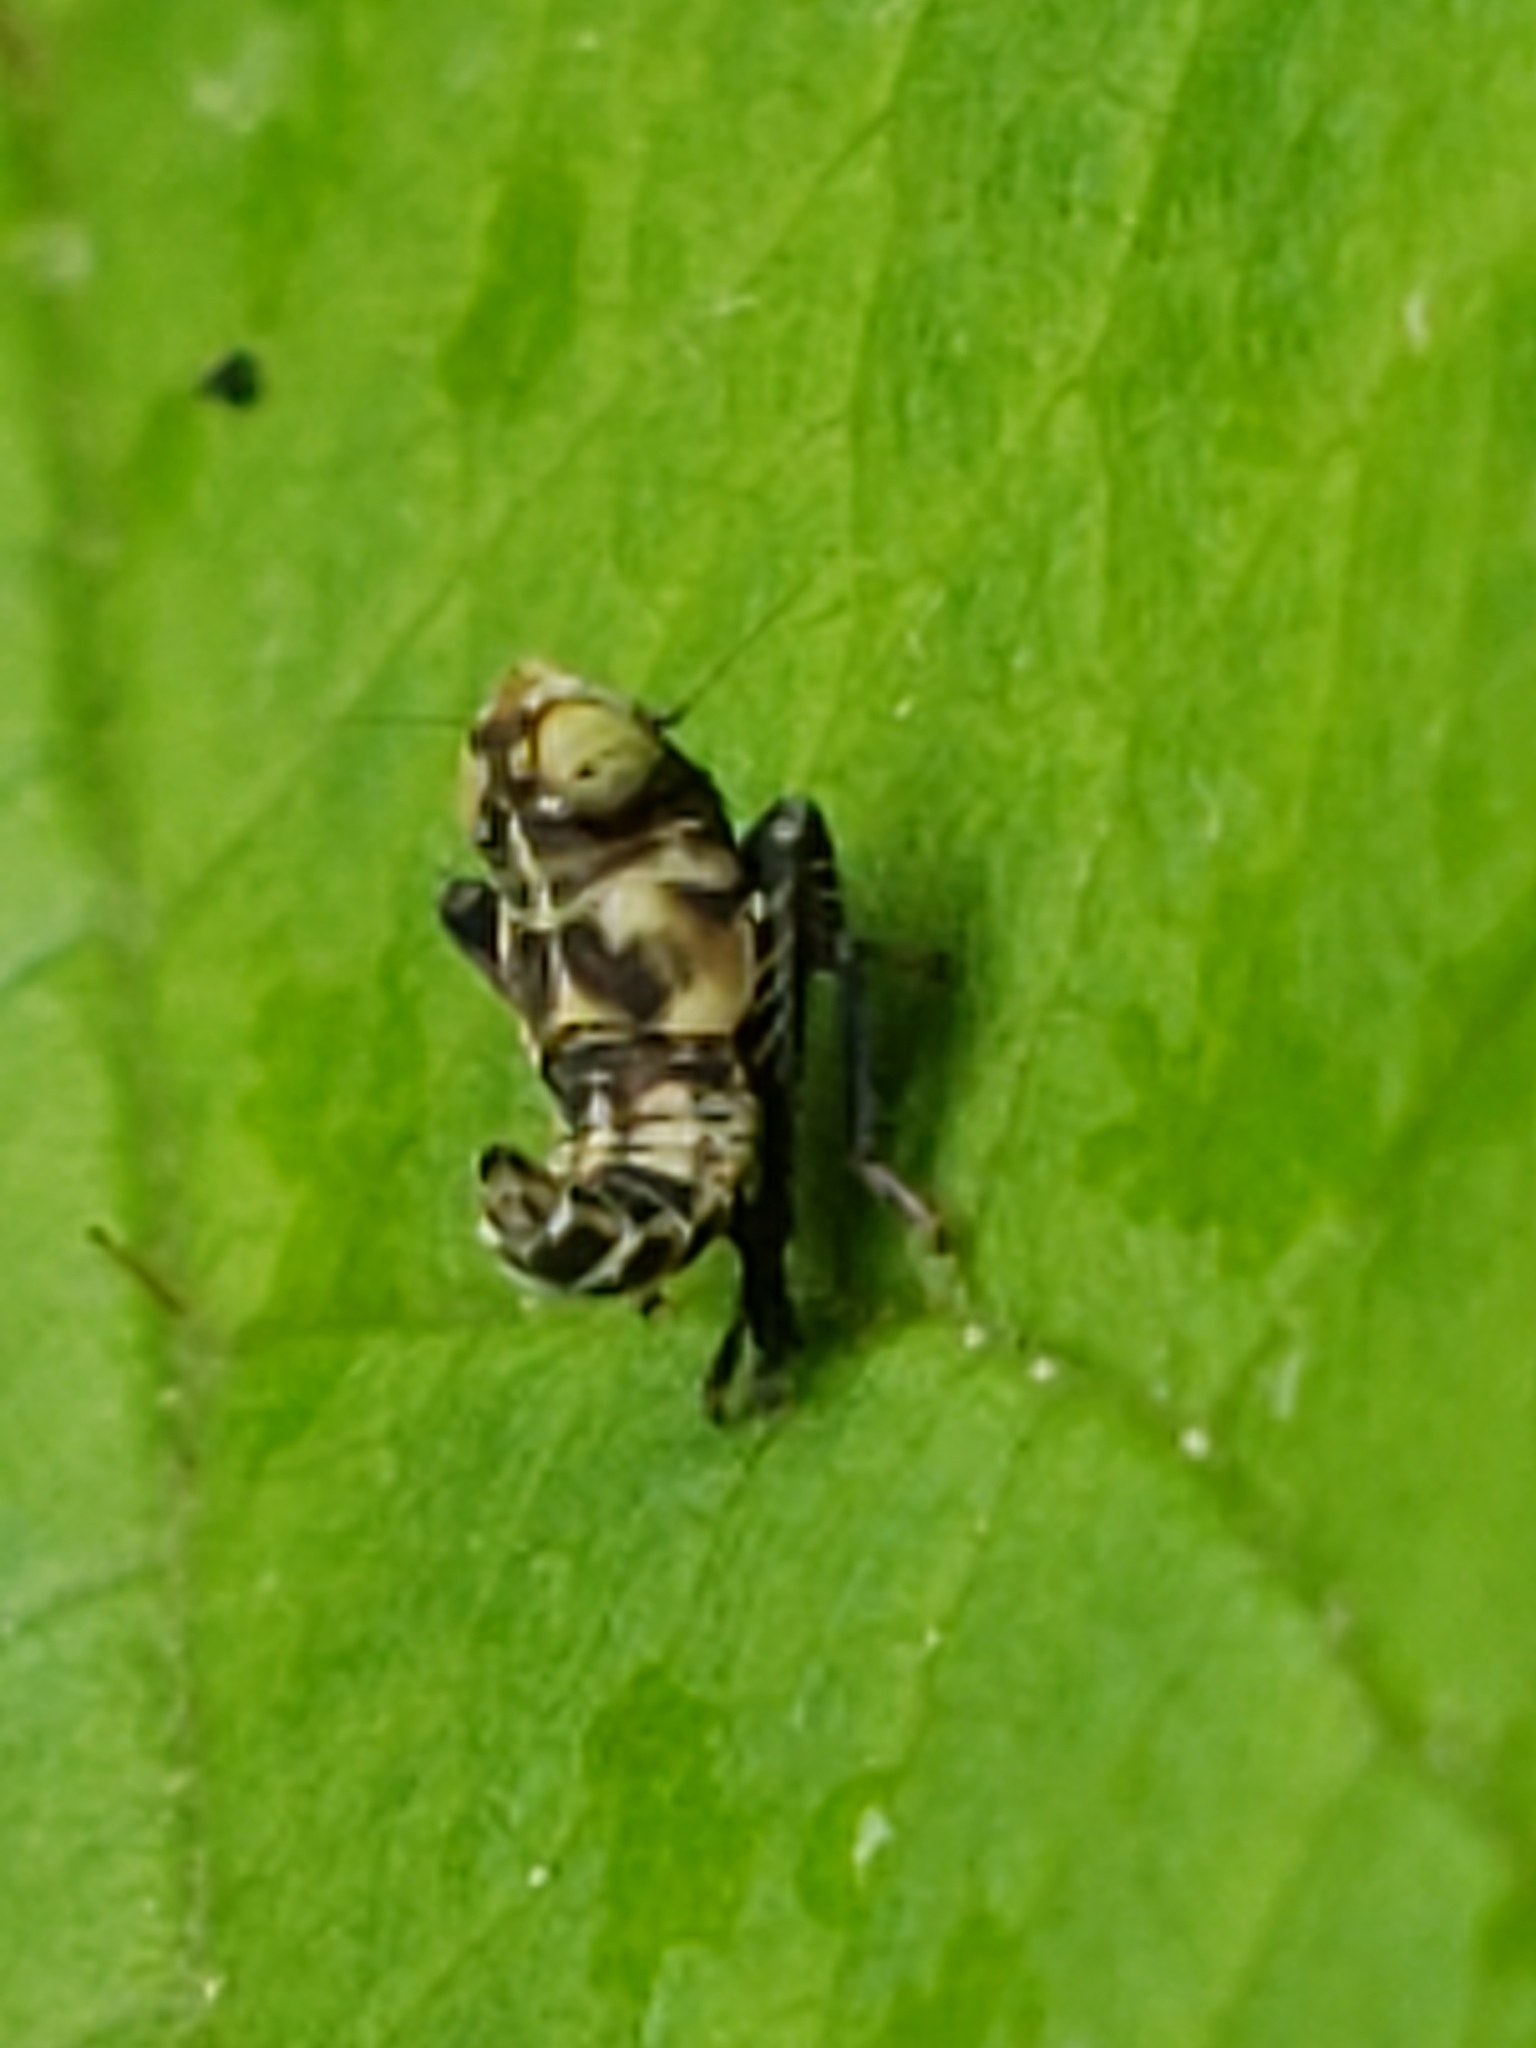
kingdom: Animalia
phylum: Arthropoda
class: Insecta
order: Hemiptera
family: Cicadellidae
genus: Jikradia
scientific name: Jikradia olitoria
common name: Coppery leafhopper
